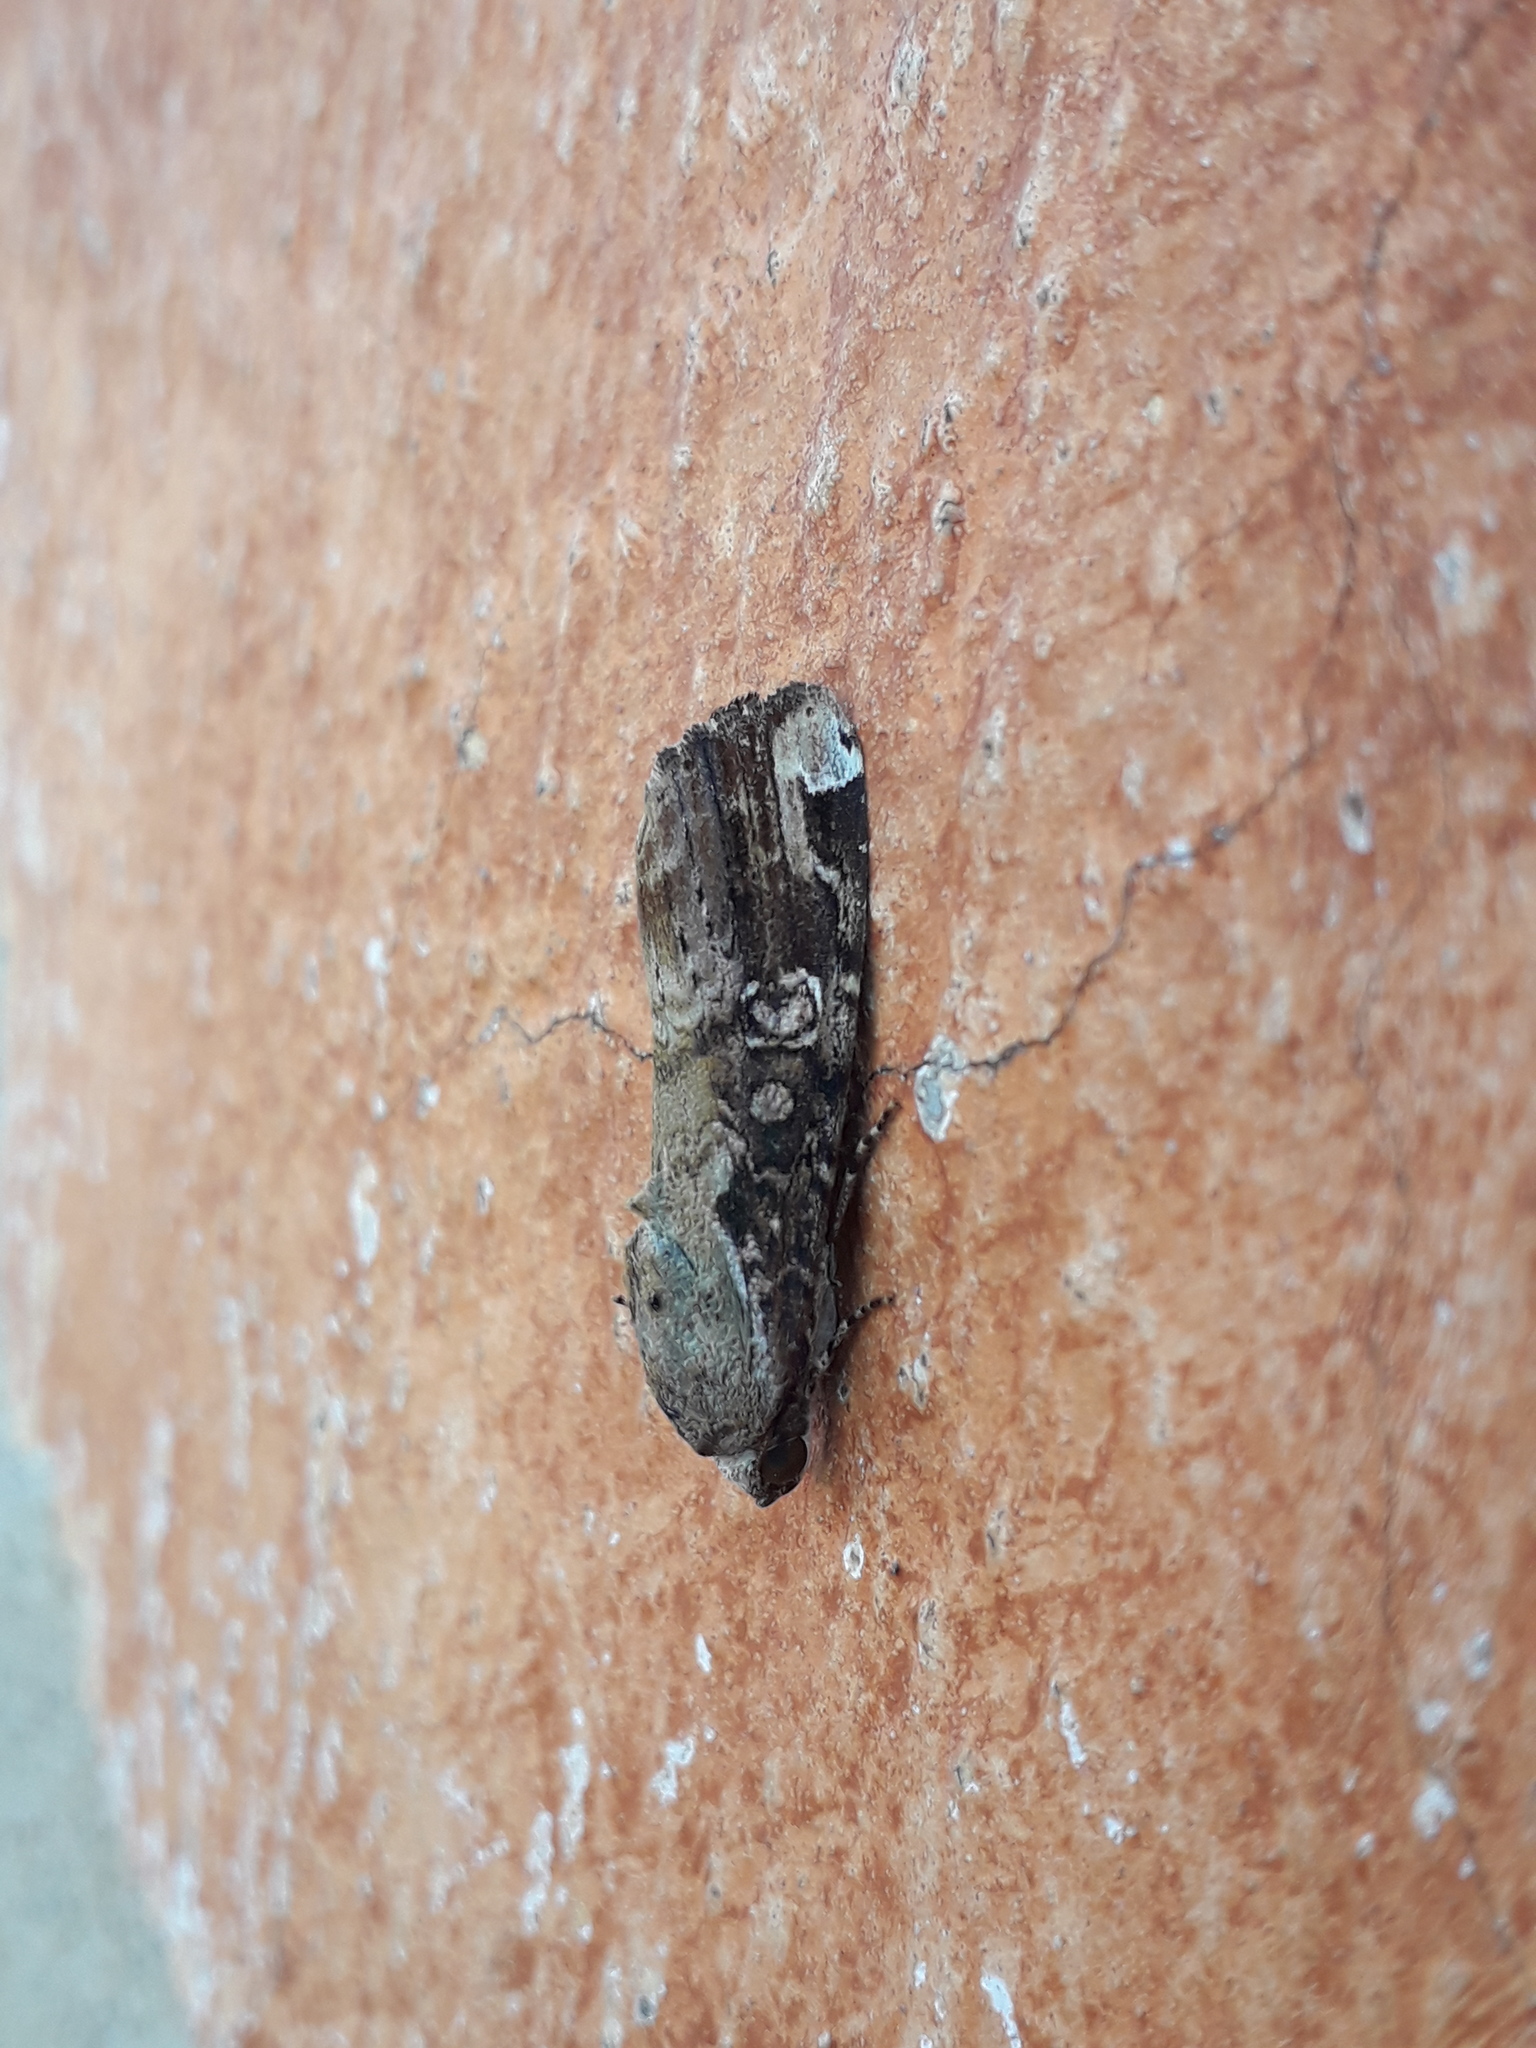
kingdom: Animalia
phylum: Arthropoda
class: Insecta
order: Lepidoptera
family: Noctuidae
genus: Magusa
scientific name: Magusa divaricata
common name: Orb narrow-winged moth
